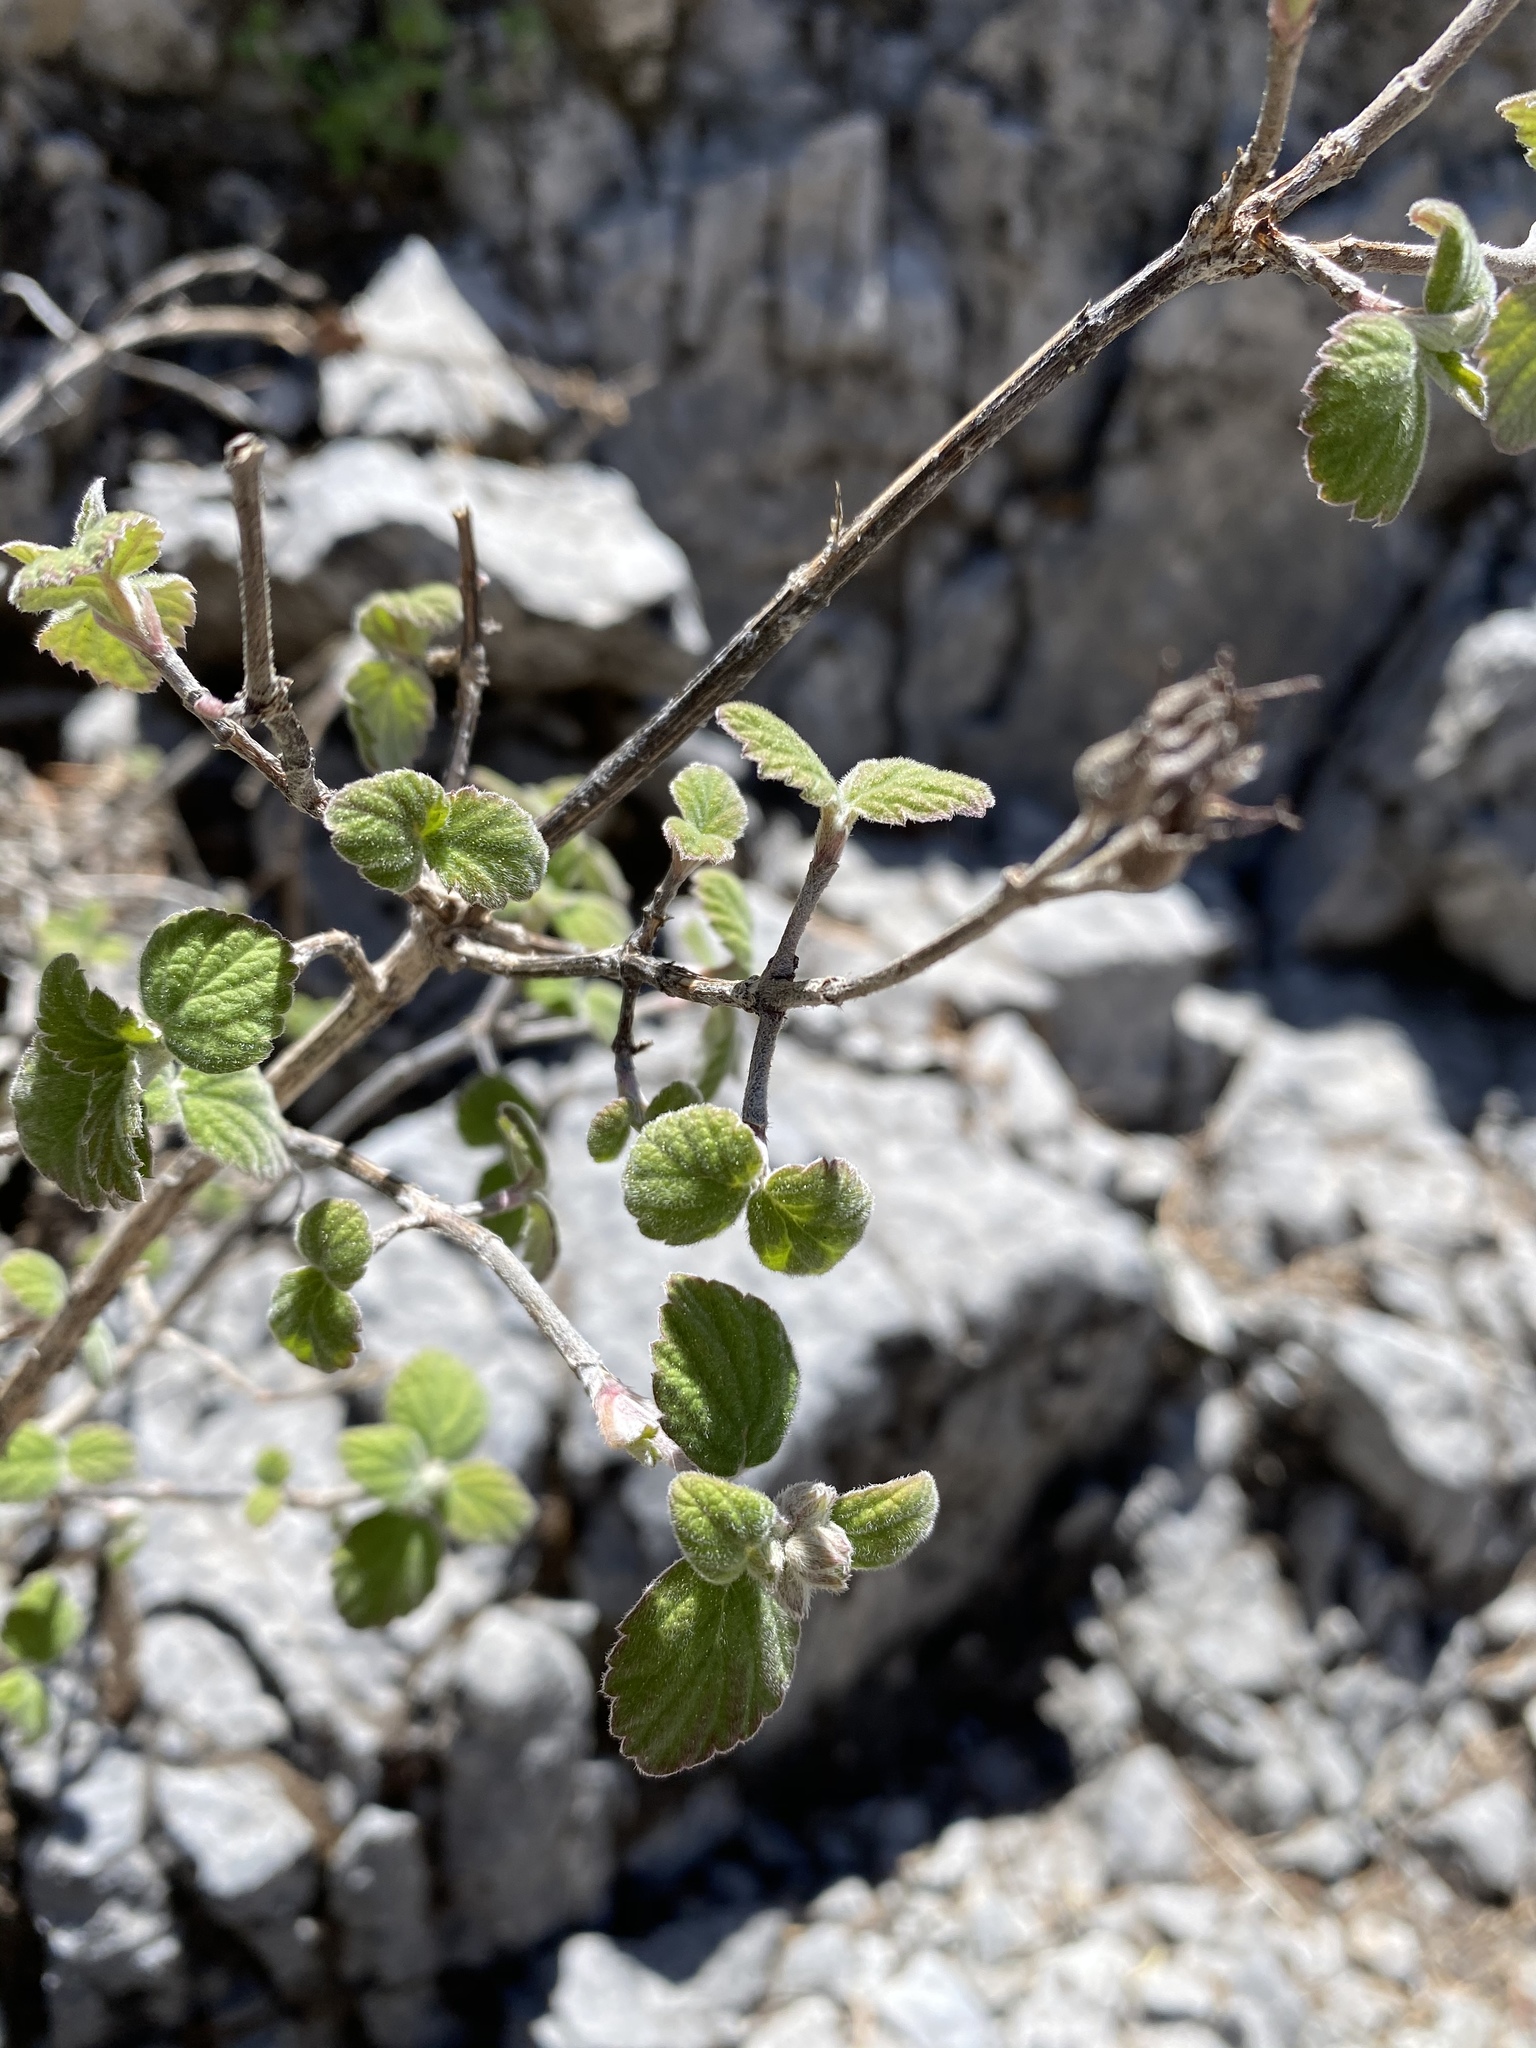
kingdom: Plantae
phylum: Tracheophyta
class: Magnoliopsida
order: Cornales
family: Hydrangeaceae
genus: Jamesia
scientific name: Jamesia americana
